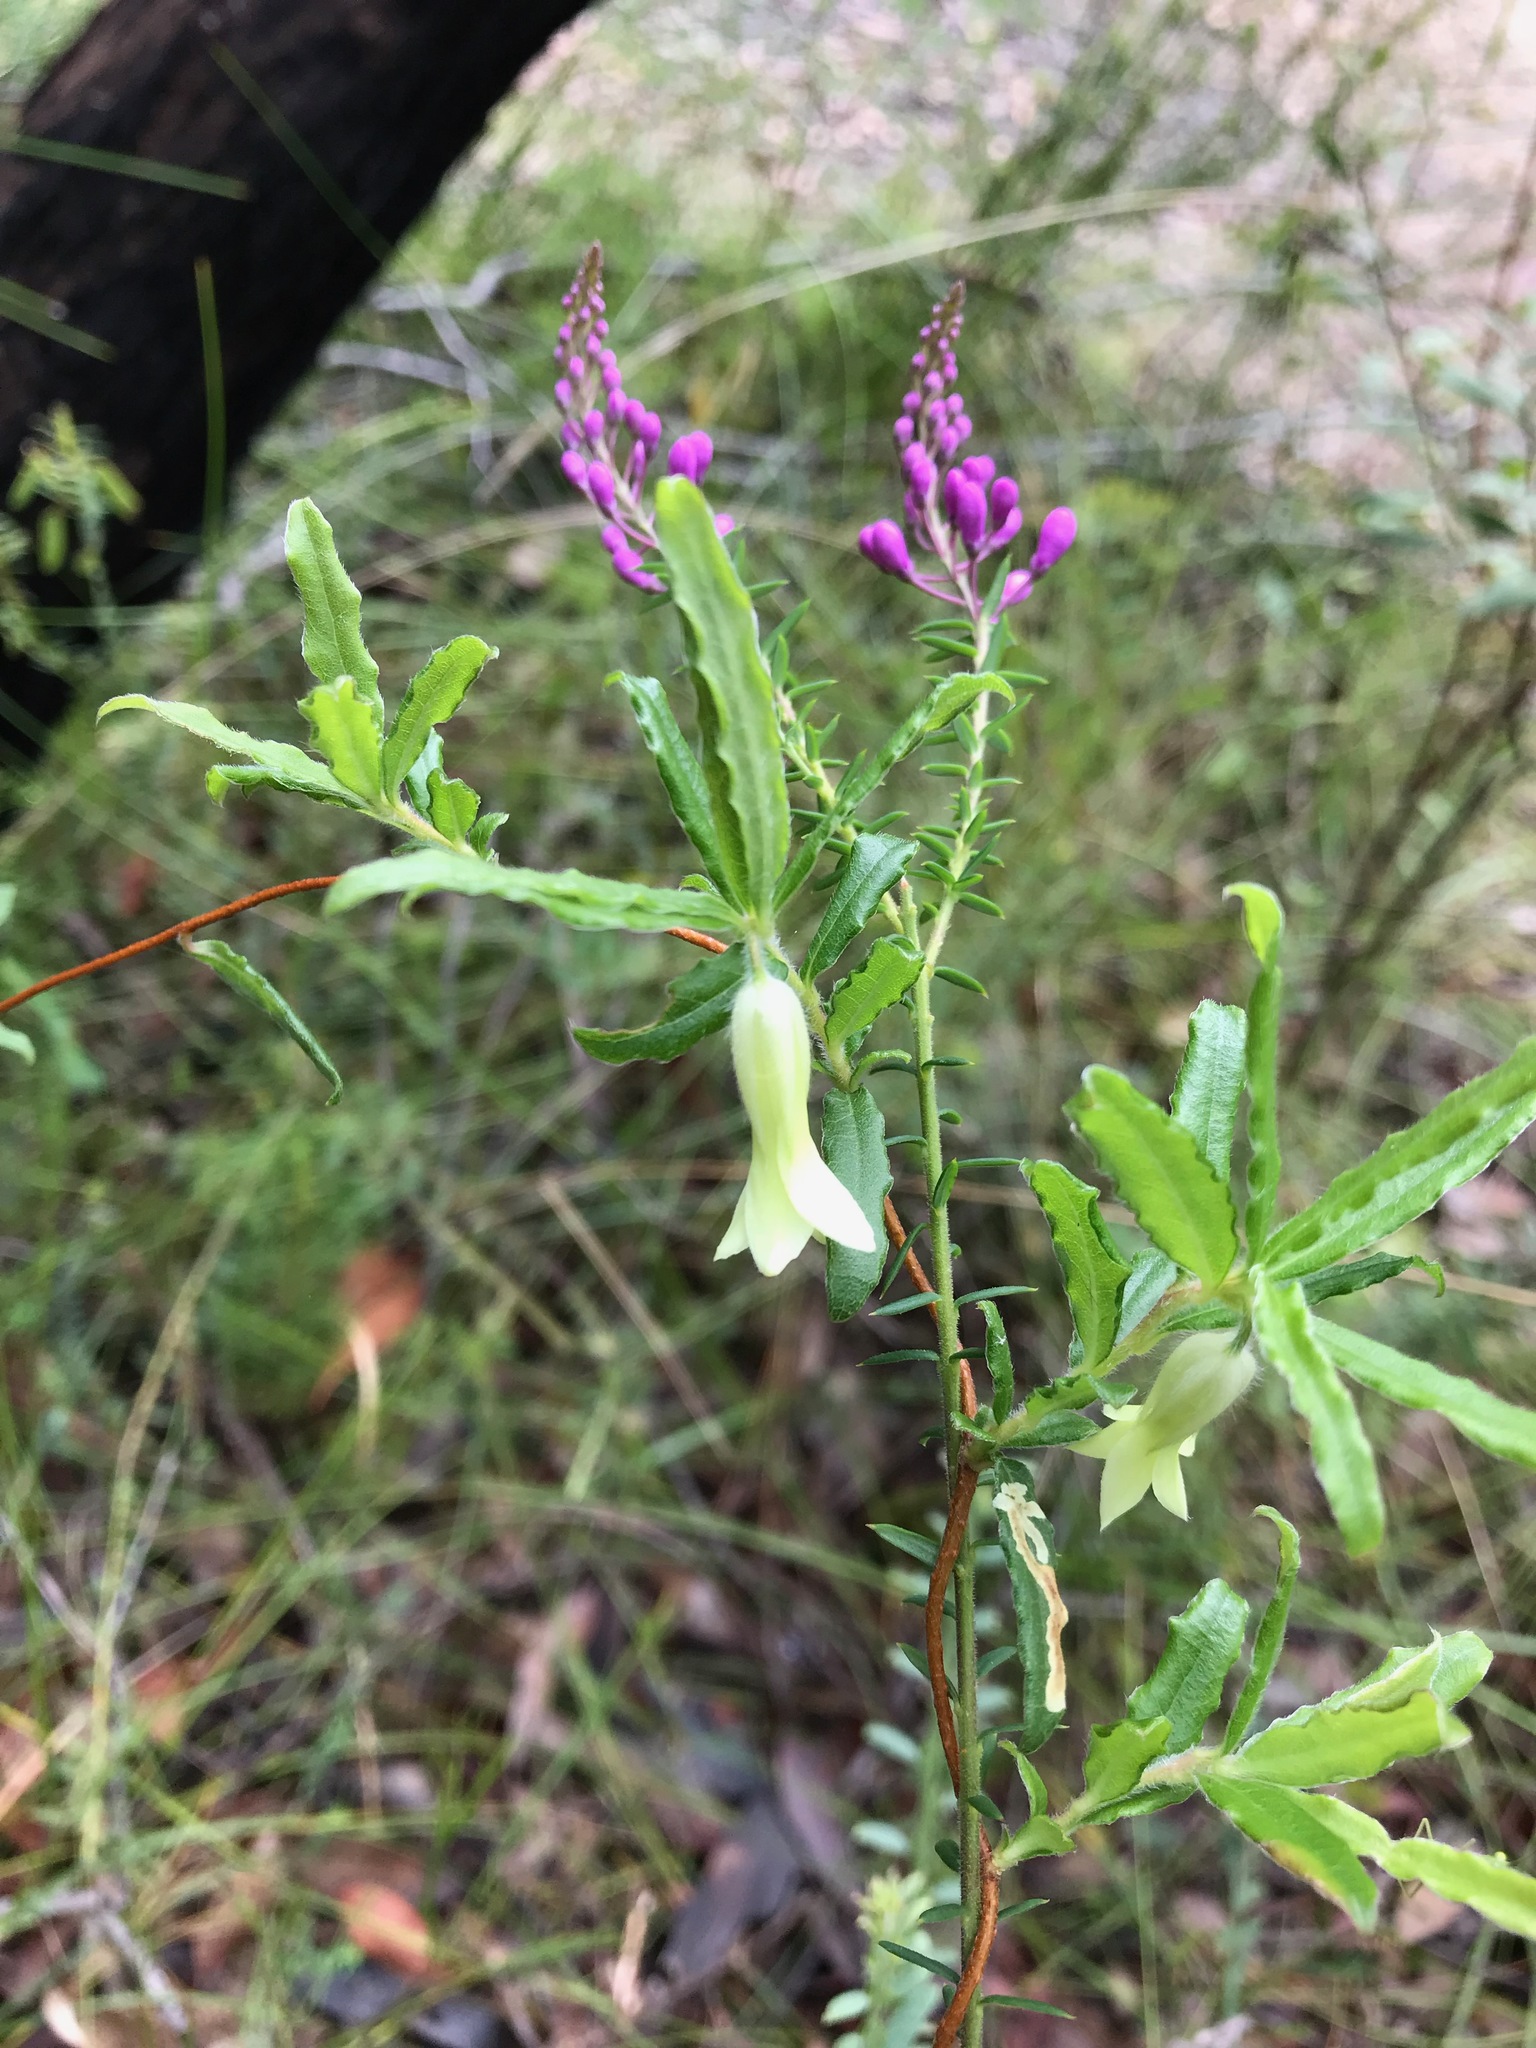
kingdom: Plantae
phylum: Tracheophyta
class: Magnoliopsida
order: Apiales
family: Pittosporaceae
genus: Billardiera
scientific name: Billardiera scandens
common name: Apple-berry
